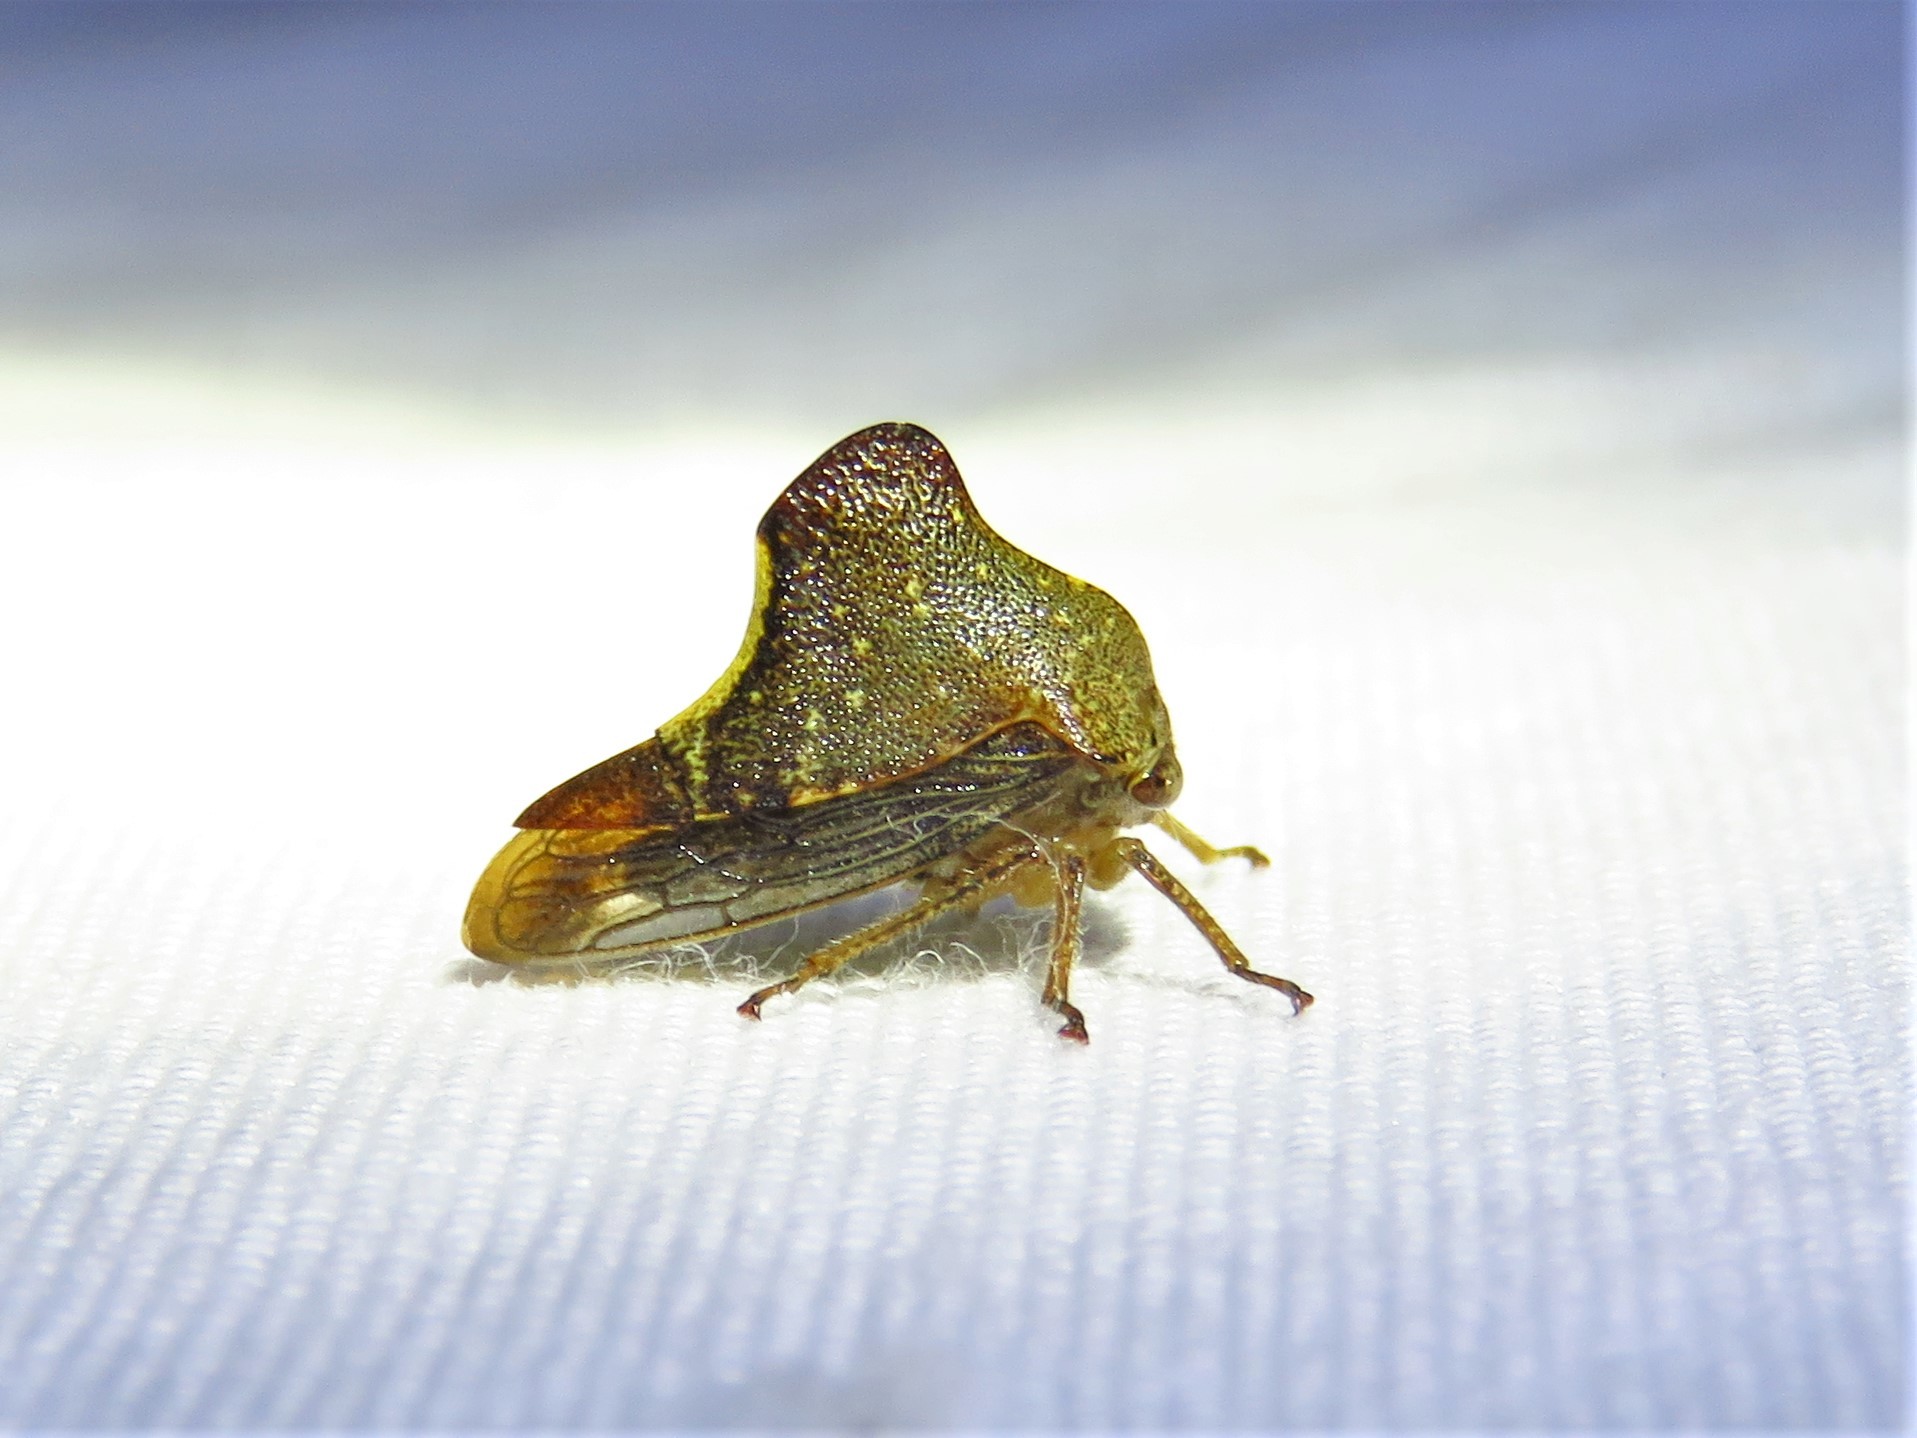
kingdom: Animalia
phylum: Arthropoda
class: Insecta
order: Hemiptera
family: Membracidae
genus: Telamona
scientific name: Telamona monticola
